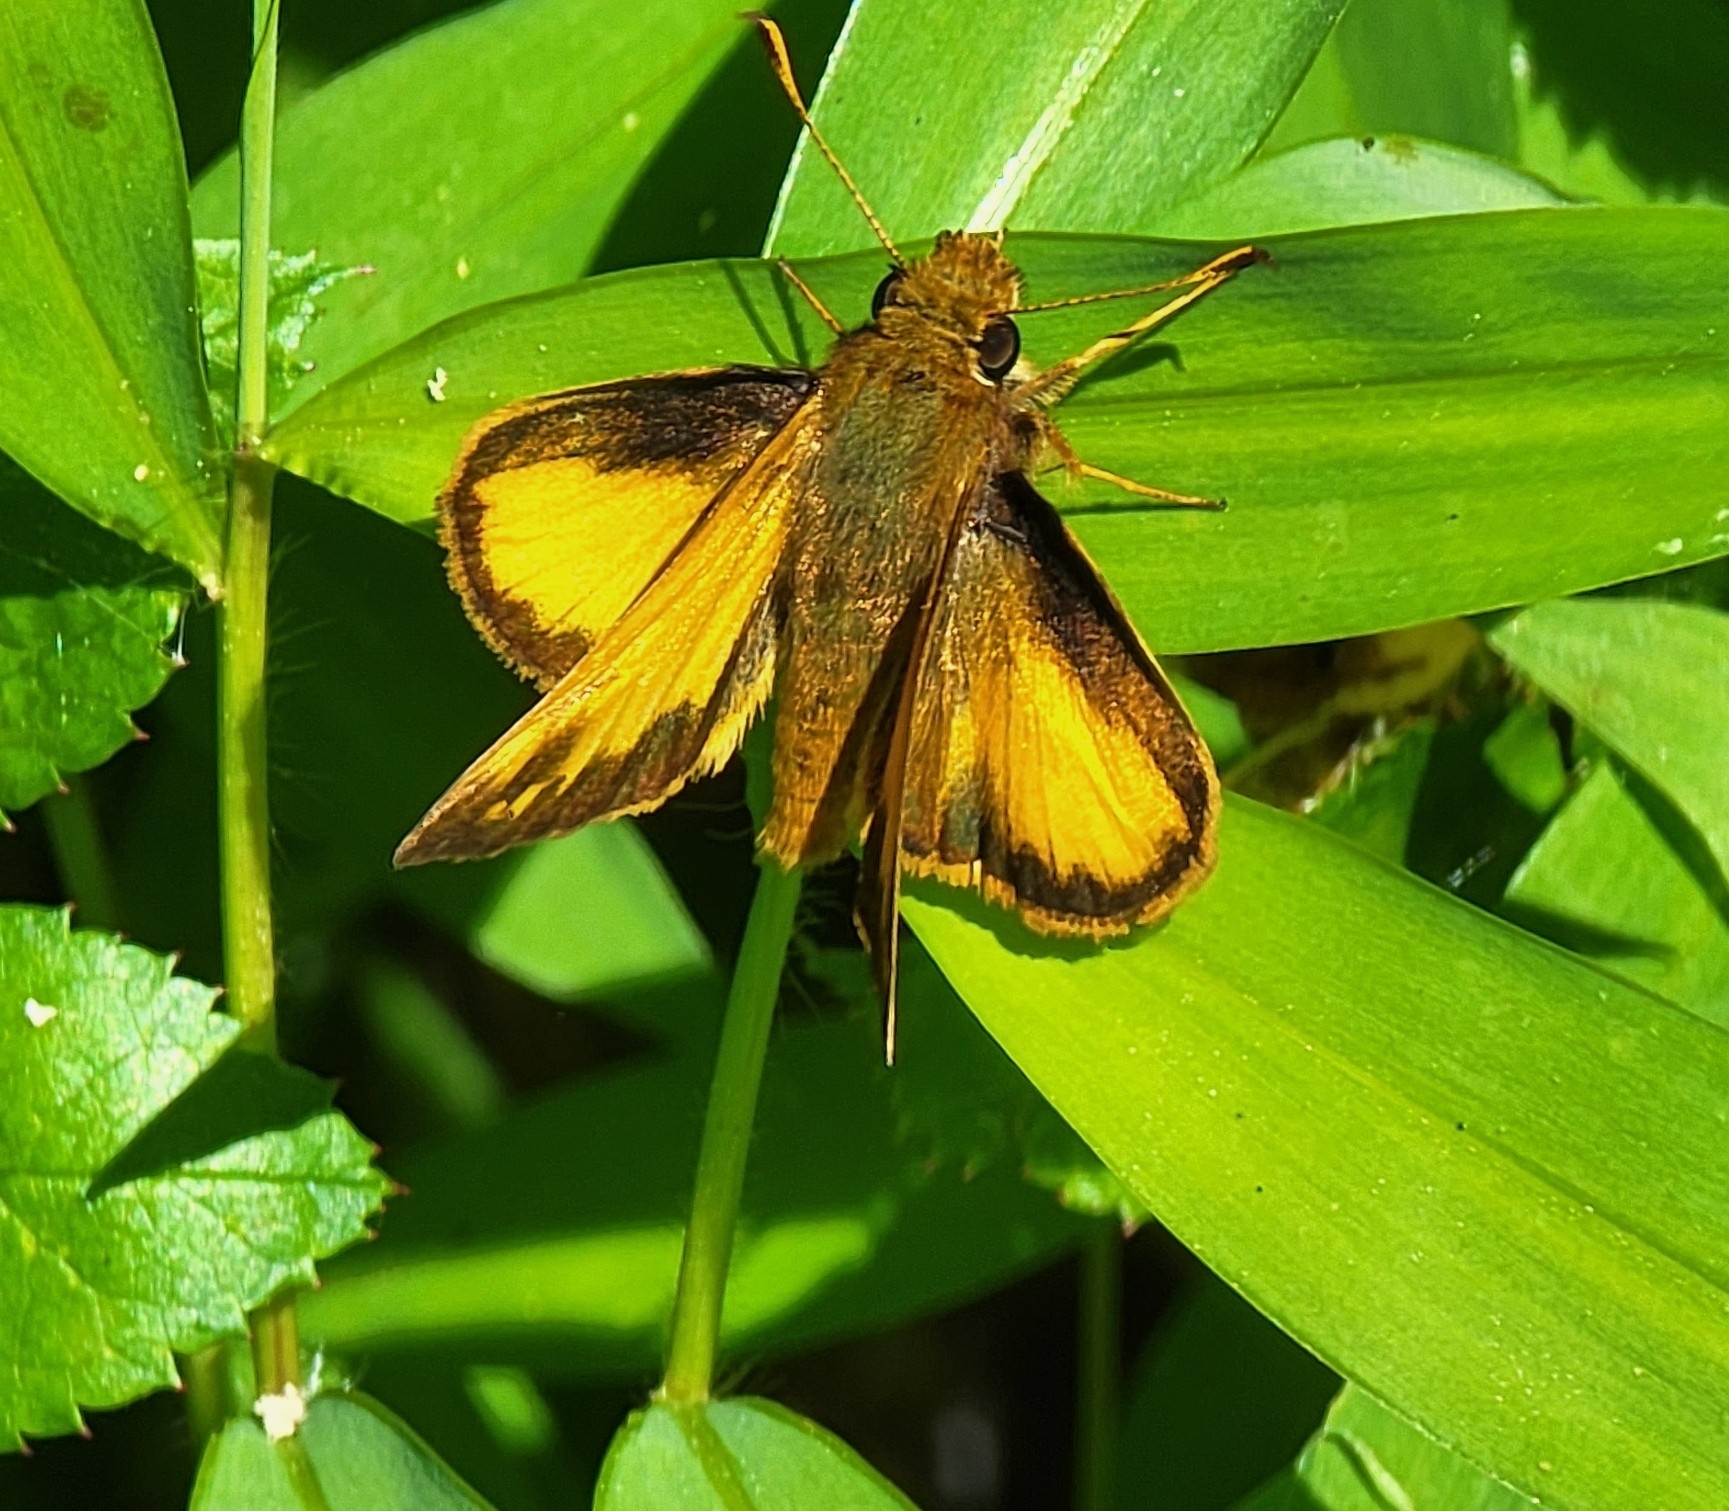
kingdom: Animalia
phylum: Arthropoda
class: Insecta
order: Lepidoptera
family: Hesperiidae
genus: Lon
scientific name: Lon zabulon
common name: Zabulon skipper
